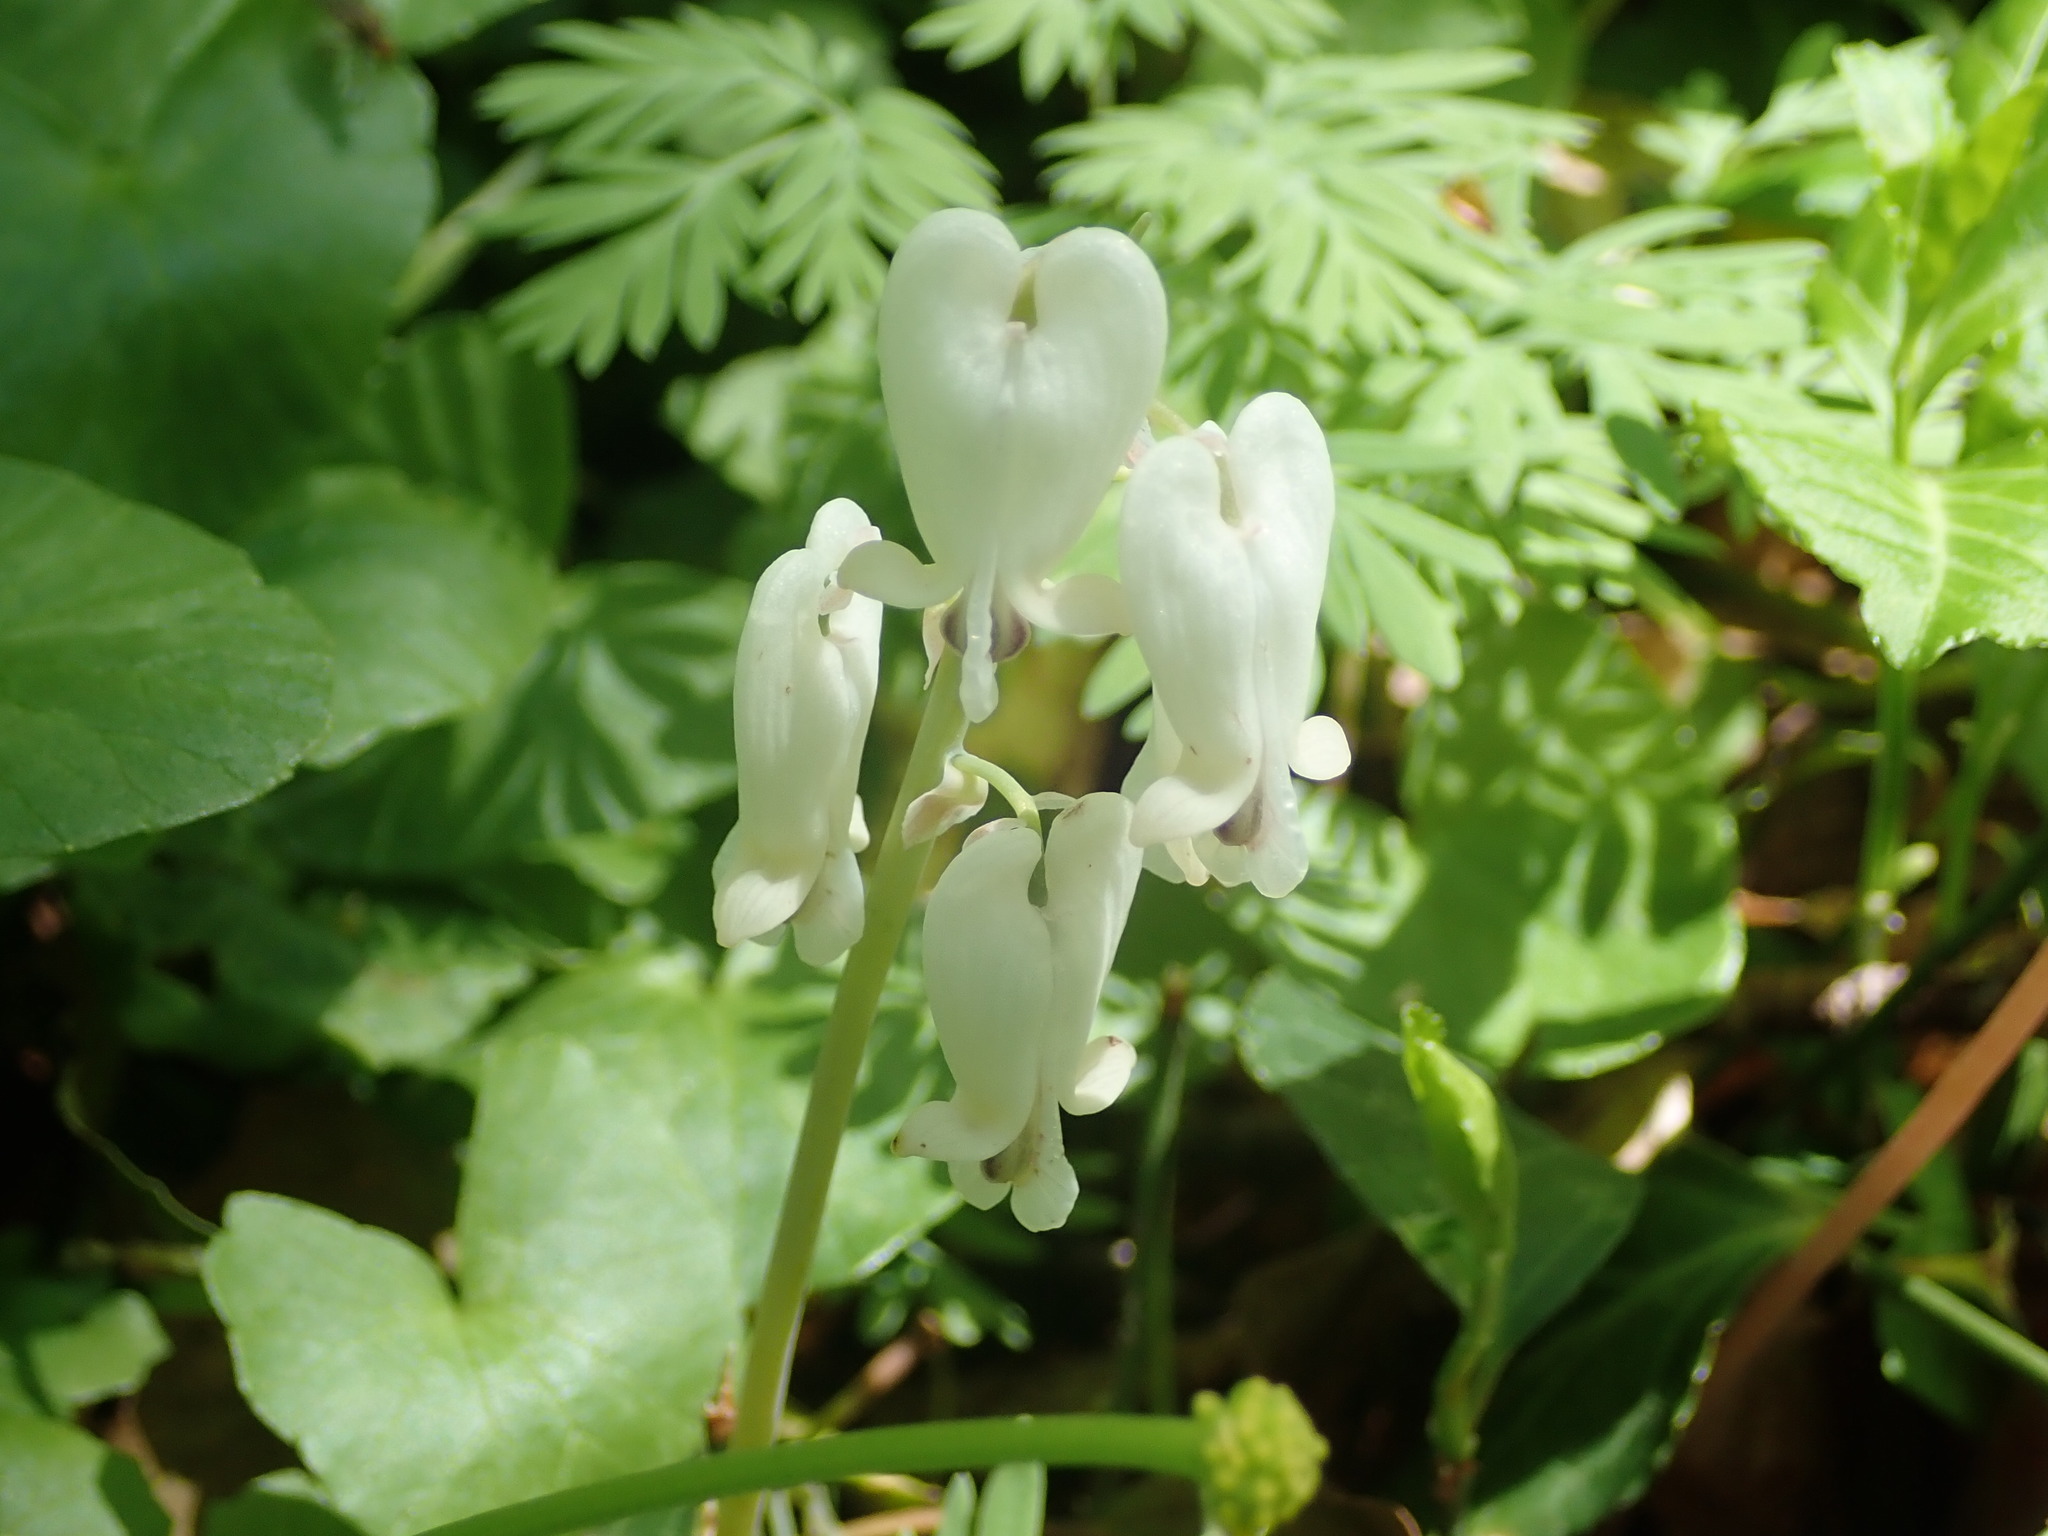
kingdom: Plantae
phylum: Tracheophyta
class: Magnoliopsida
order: Ranunculales
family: Papaveraceae
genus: Dicentra
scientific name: Dicentra canadensis
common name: Squirrel-corn
